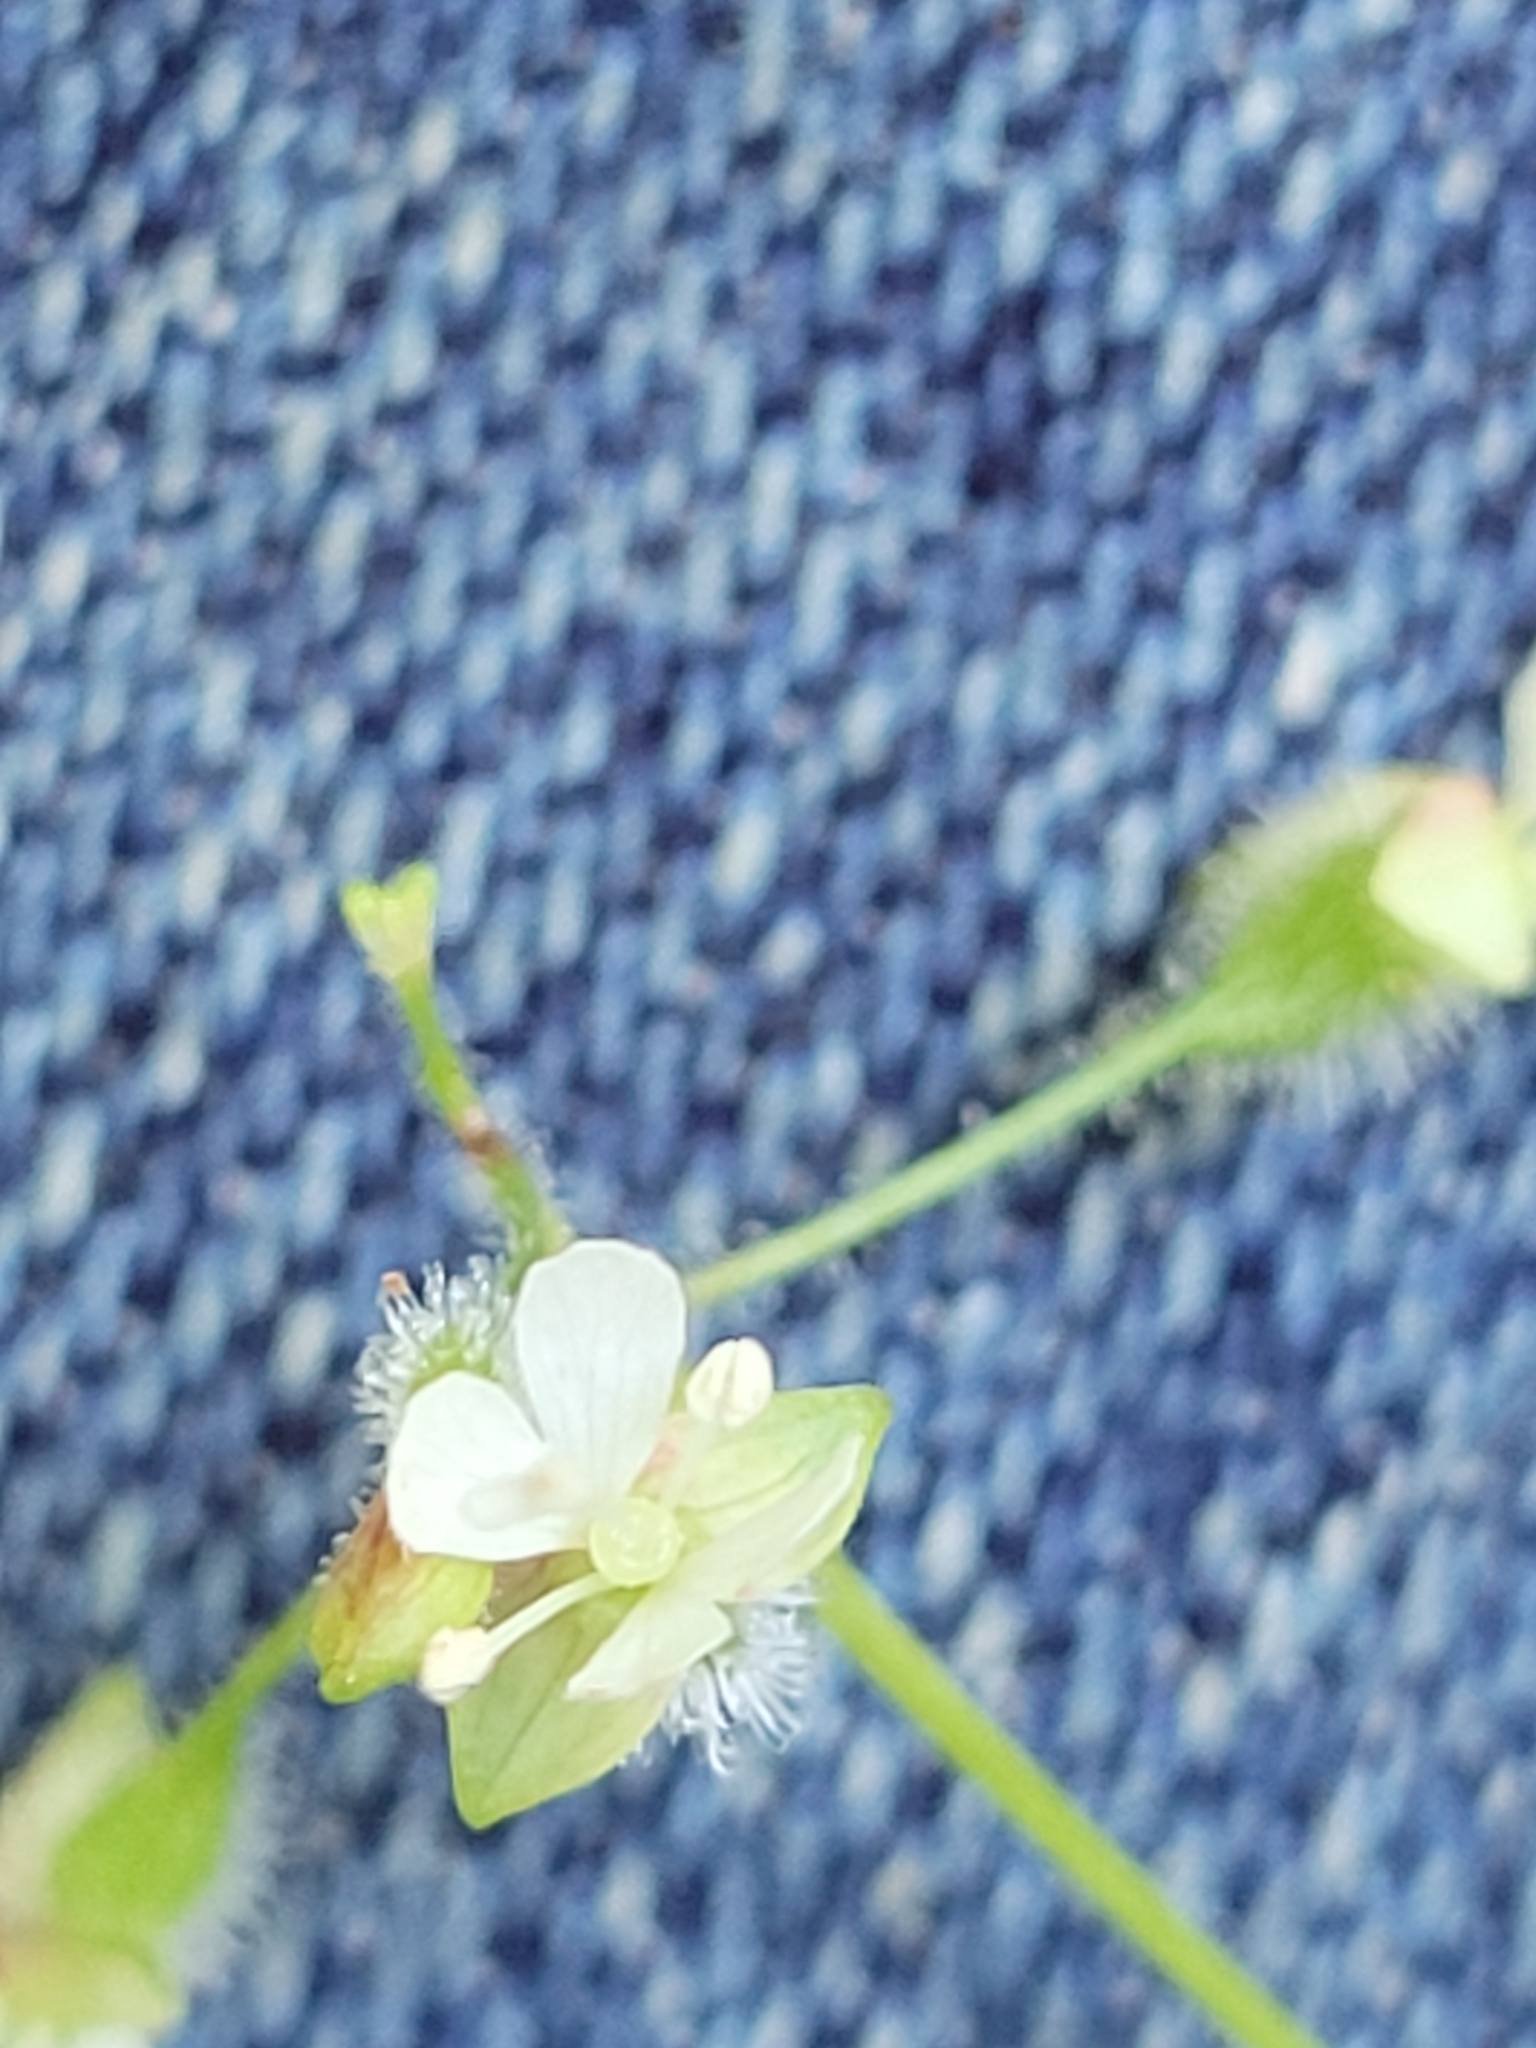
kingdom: Plantae
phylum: Tracheophyta
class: Magnoliopsida
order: Myrtales
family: Onagraceae
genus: Circaea
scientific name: Circaea canadensis
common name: Broad-leaved enchanter's nightshade
